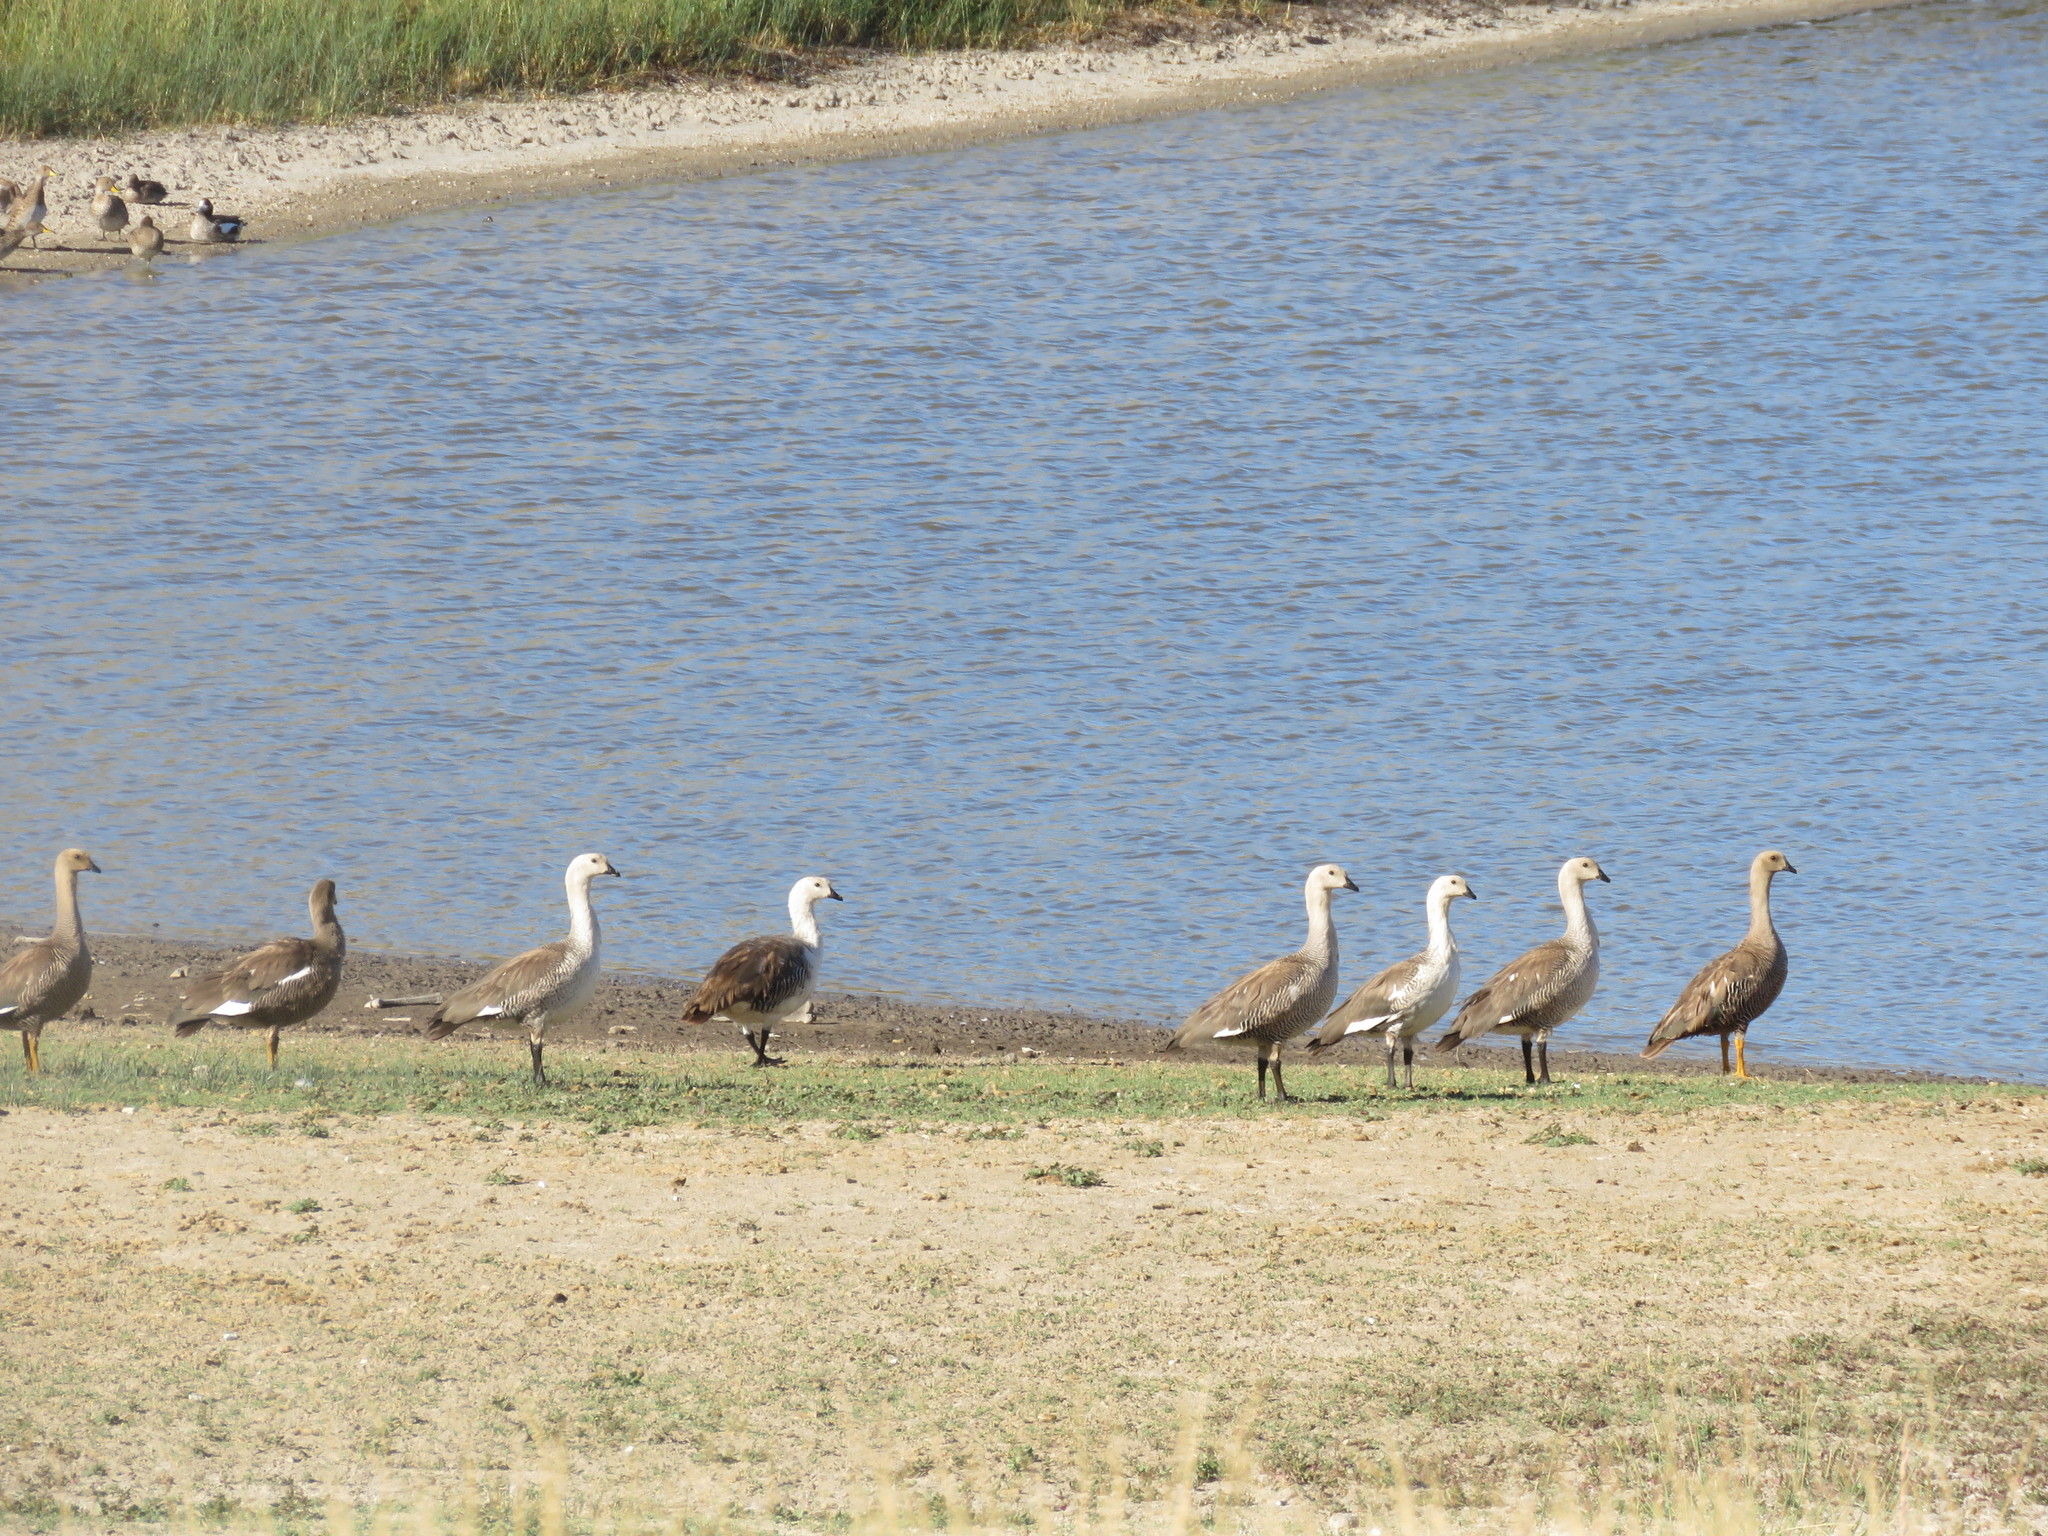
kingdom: Animalia
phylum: Chordata
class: Aves
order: Anseriformes
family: Anatidae
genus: Chloephaga
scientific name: Chloephaga picta
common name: Upland goose
